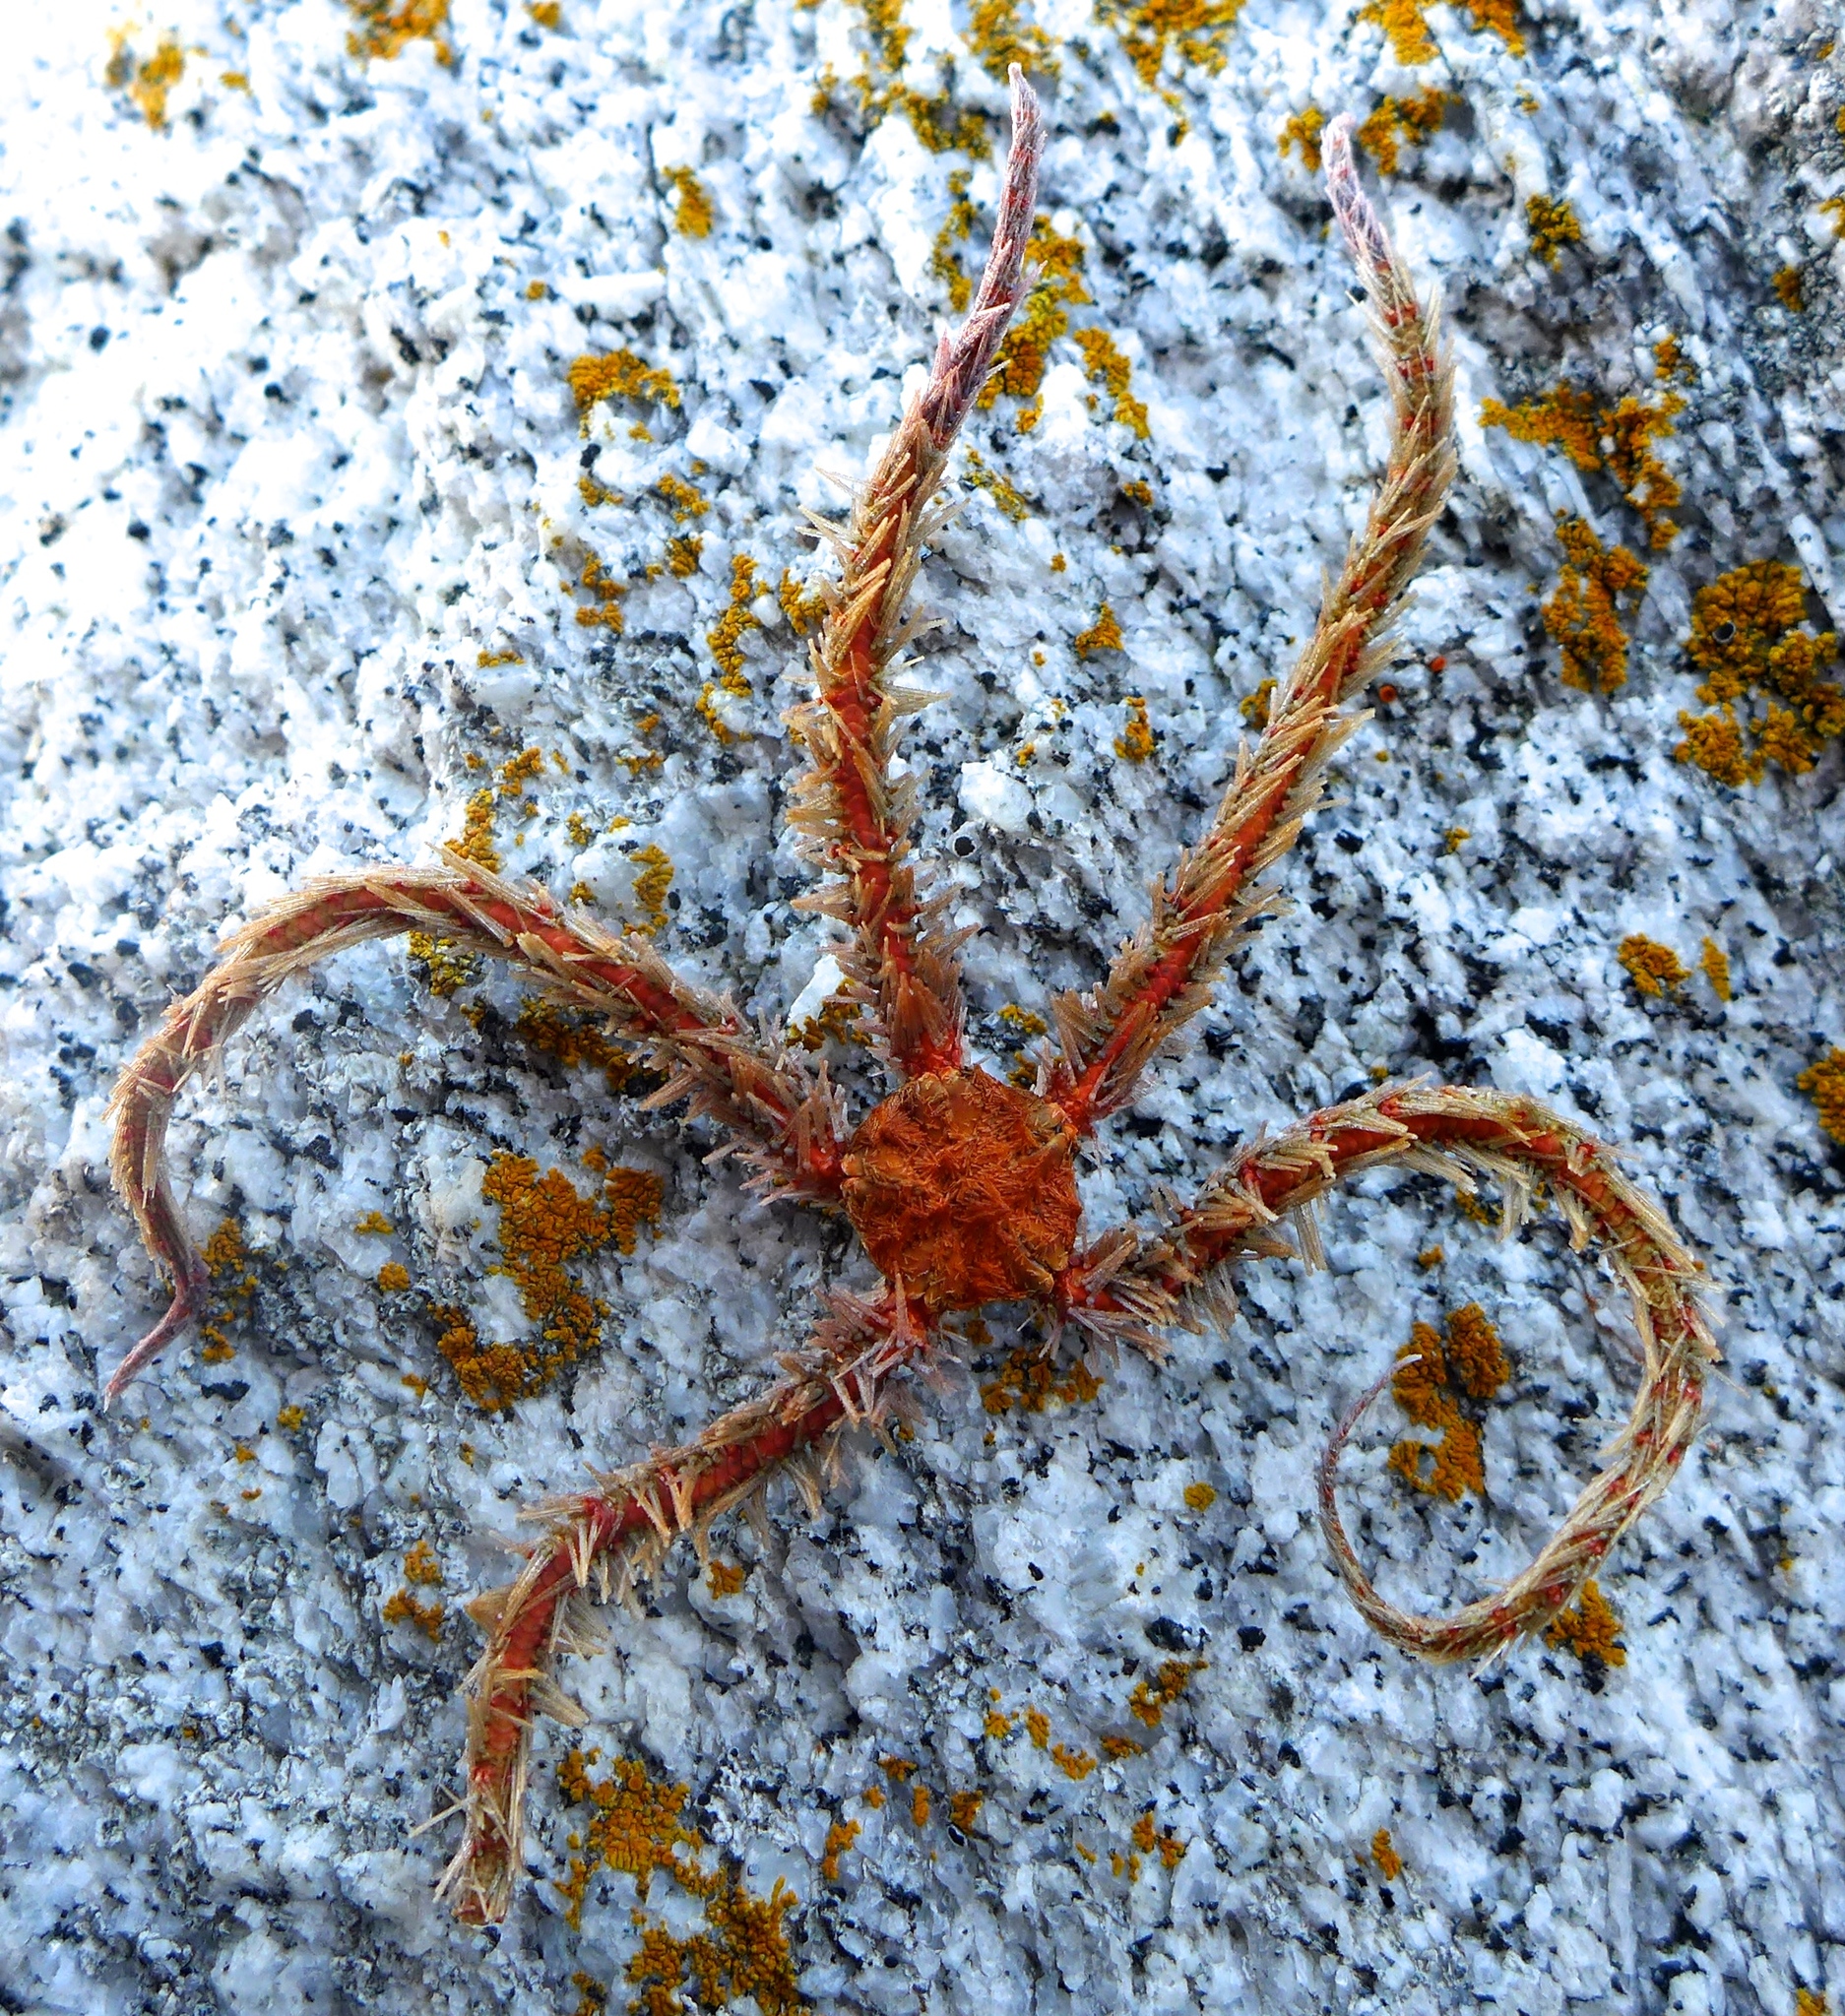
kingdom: Animalia
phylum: Echinodermata
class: Ophiuroidea
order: Amphilepidida
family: Ophiotrichidae
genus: Ophiothrix
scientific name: Ophiothrix spiculata
